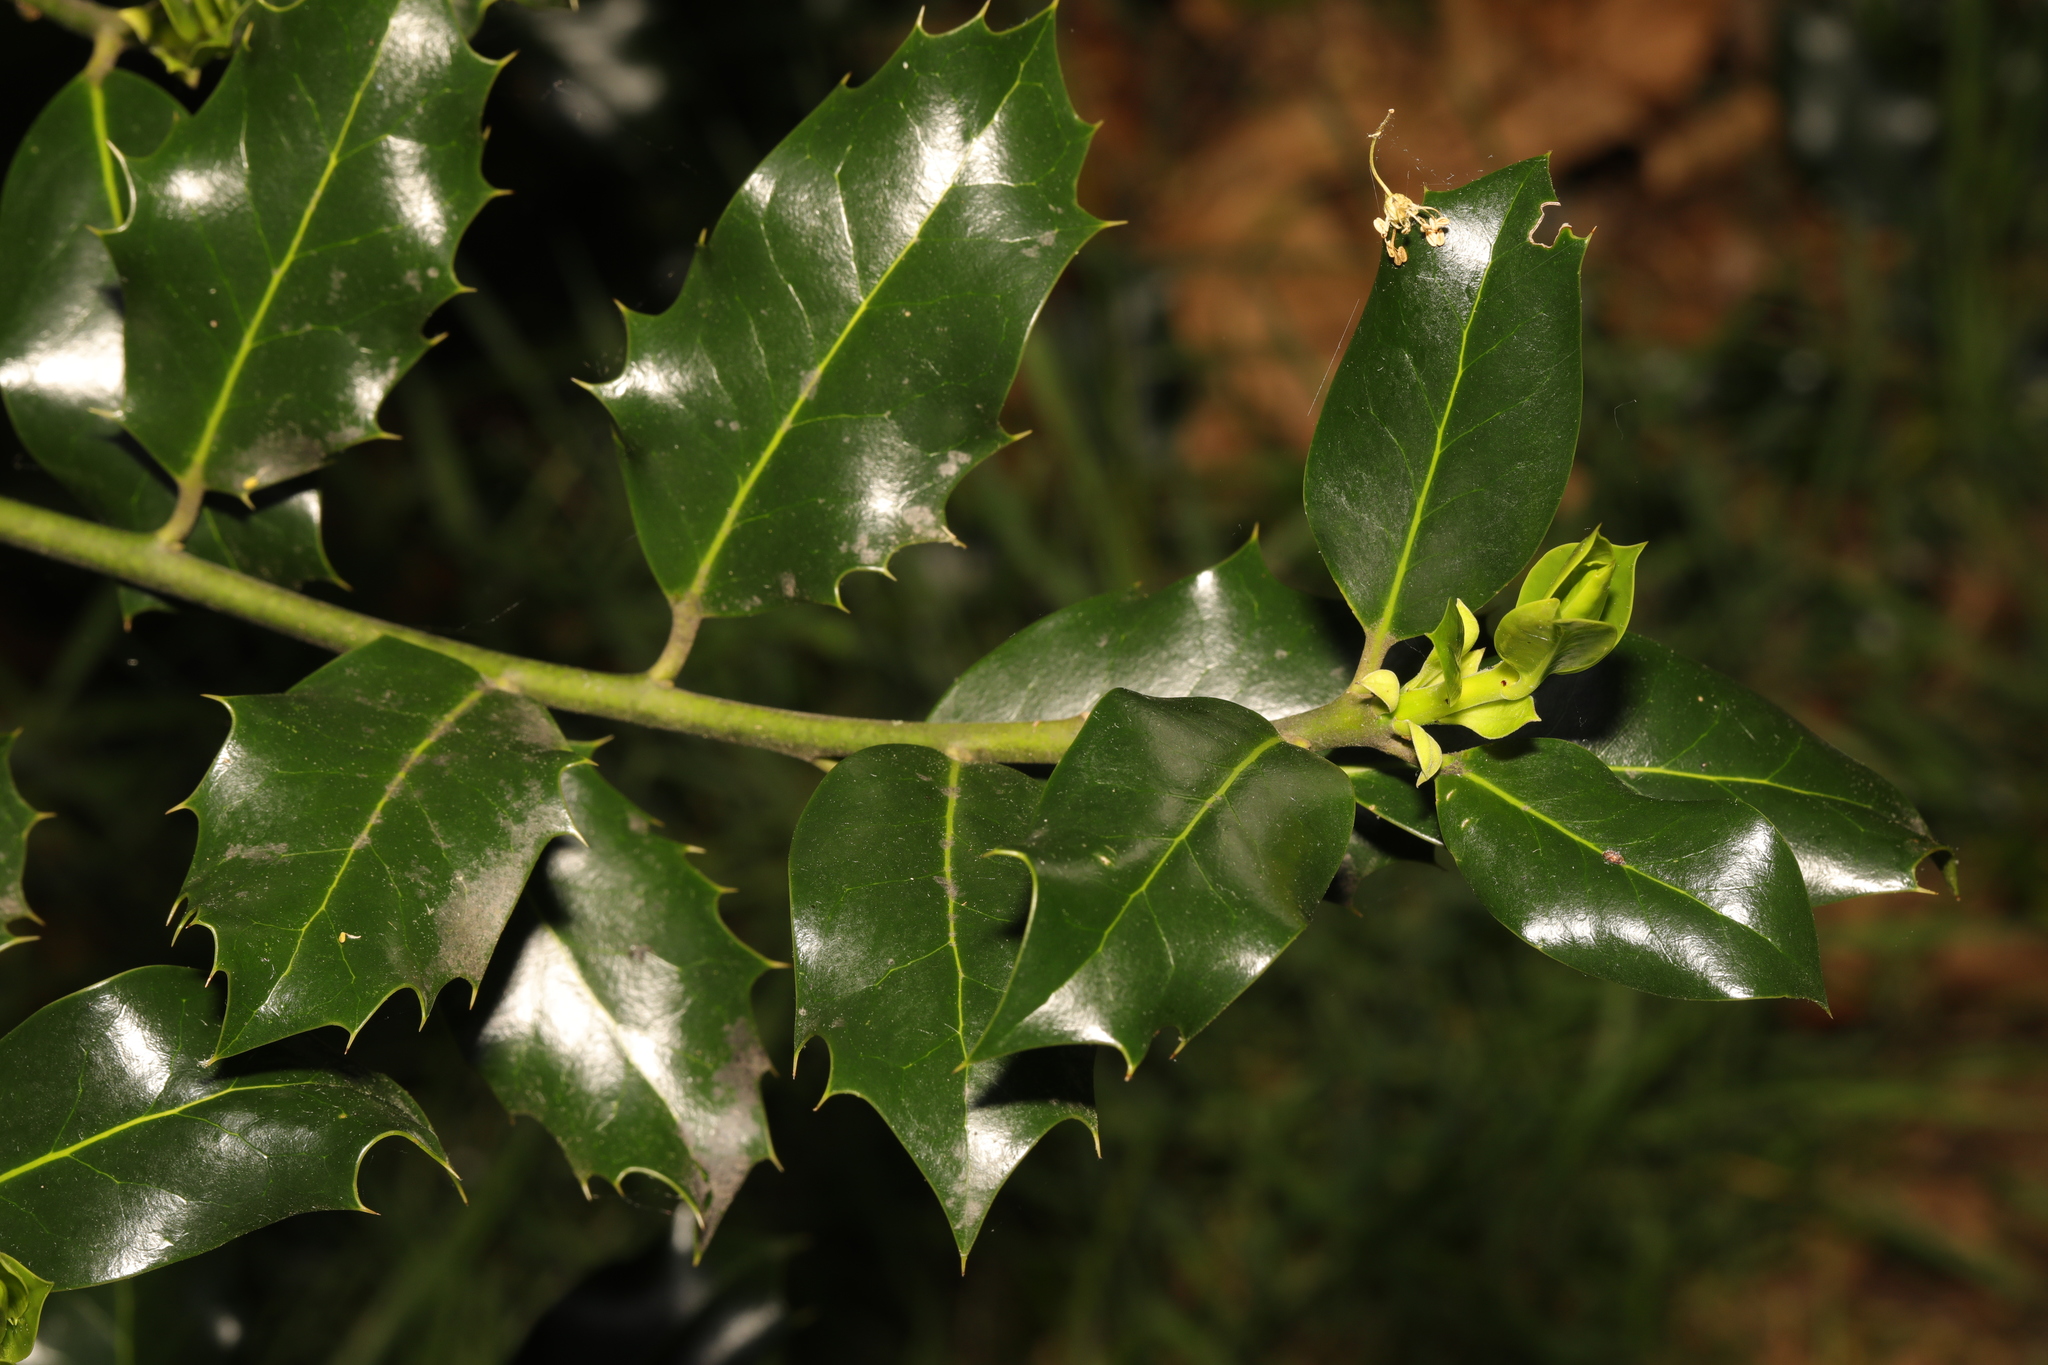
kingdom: Plantae
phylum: Tracheophyta
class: Magnoliopsida
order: Aquifoliales
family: Aquifoliaceae
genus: Ilex
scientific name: Ilex aquifolium
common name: English holly
